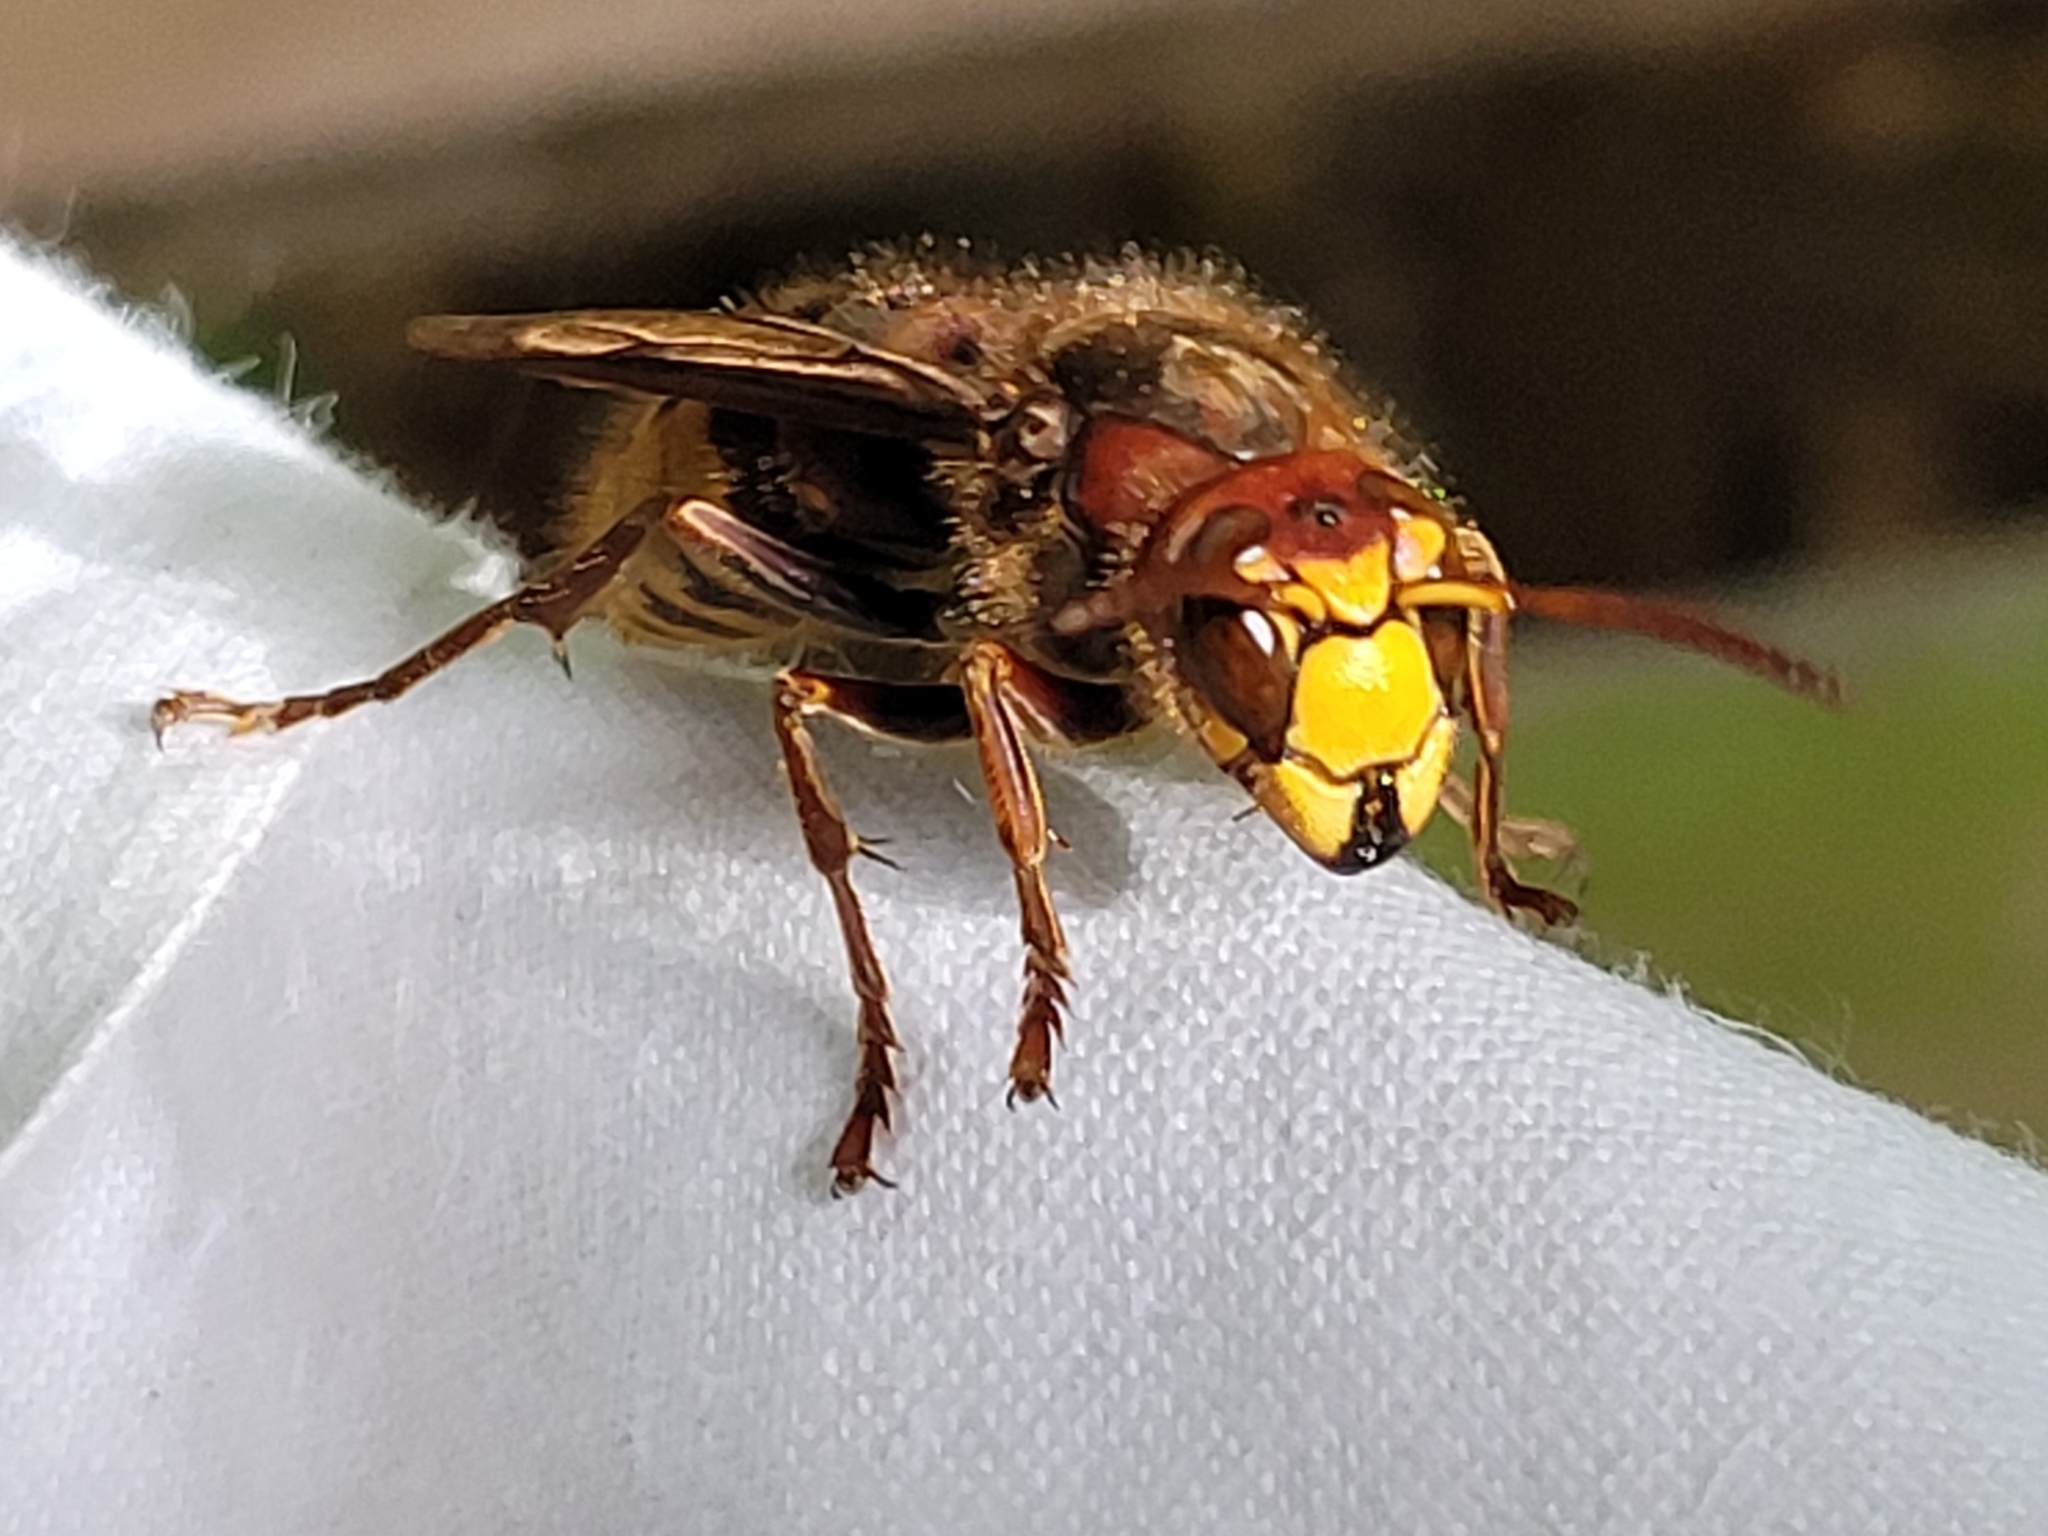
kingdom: Animalia
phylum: Arthropoda
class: Insecta
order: Hymenoptera
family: Vespidae
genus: Vespa
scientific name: Vespa crabro
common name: Hornet
